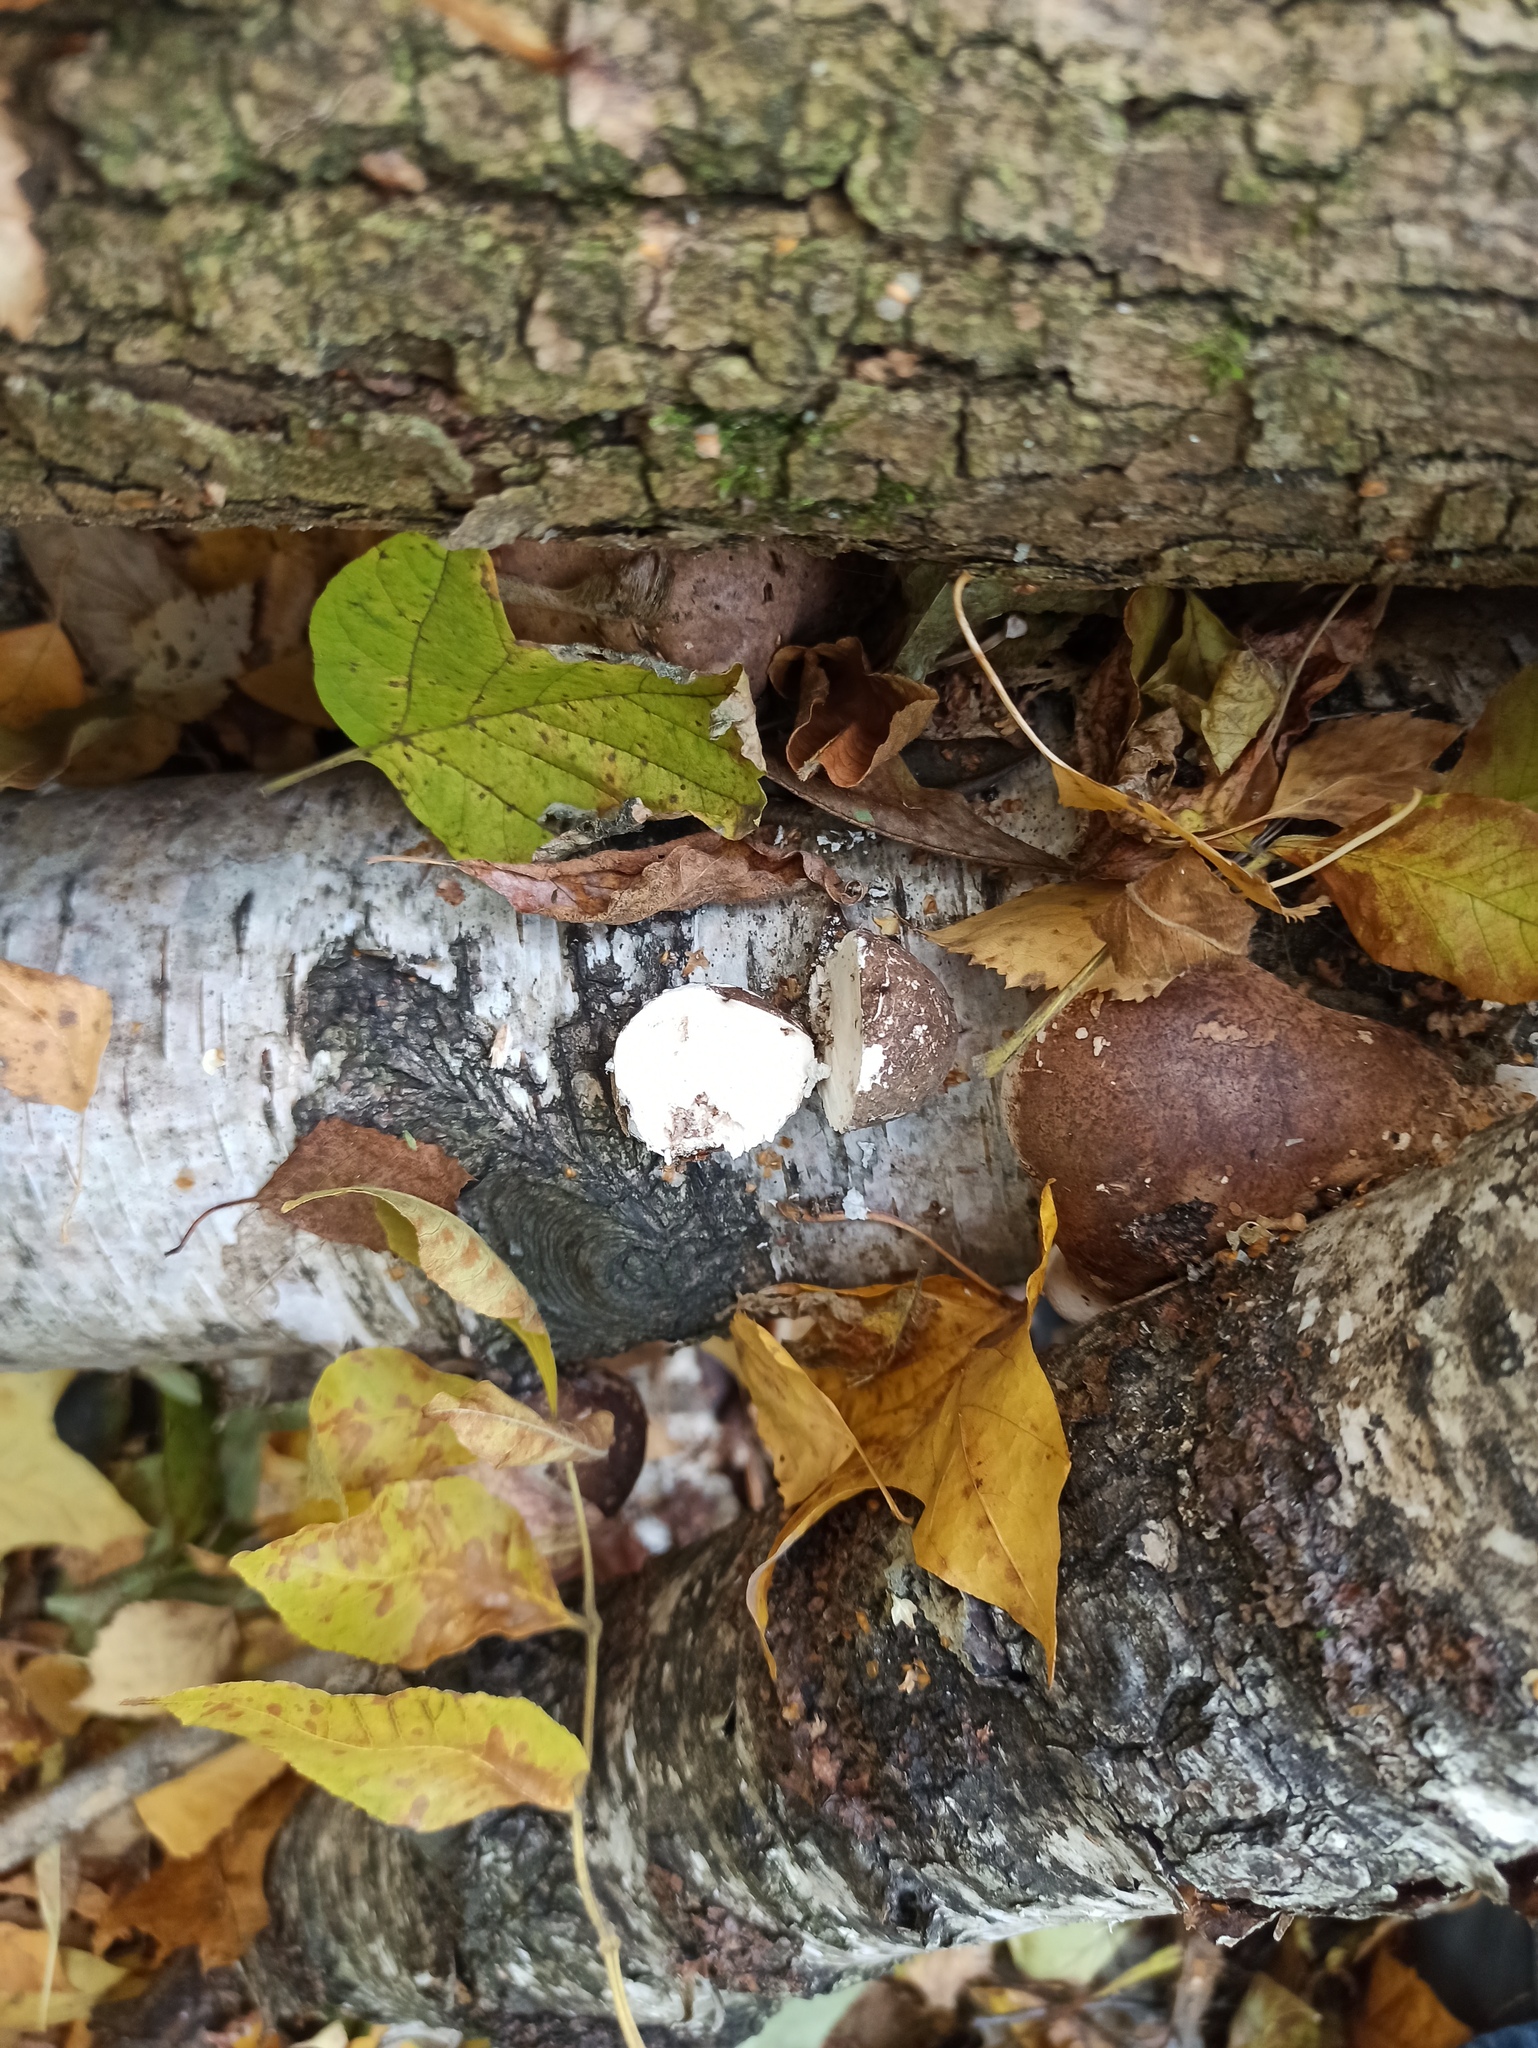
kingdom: Fungi
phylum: Basidiomycota
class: Agaricomycetes
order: Polyporales
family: Fomitopsidaceae
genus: Fomitopsis
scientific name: Fomitopsis betulina
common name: Birch polypore
